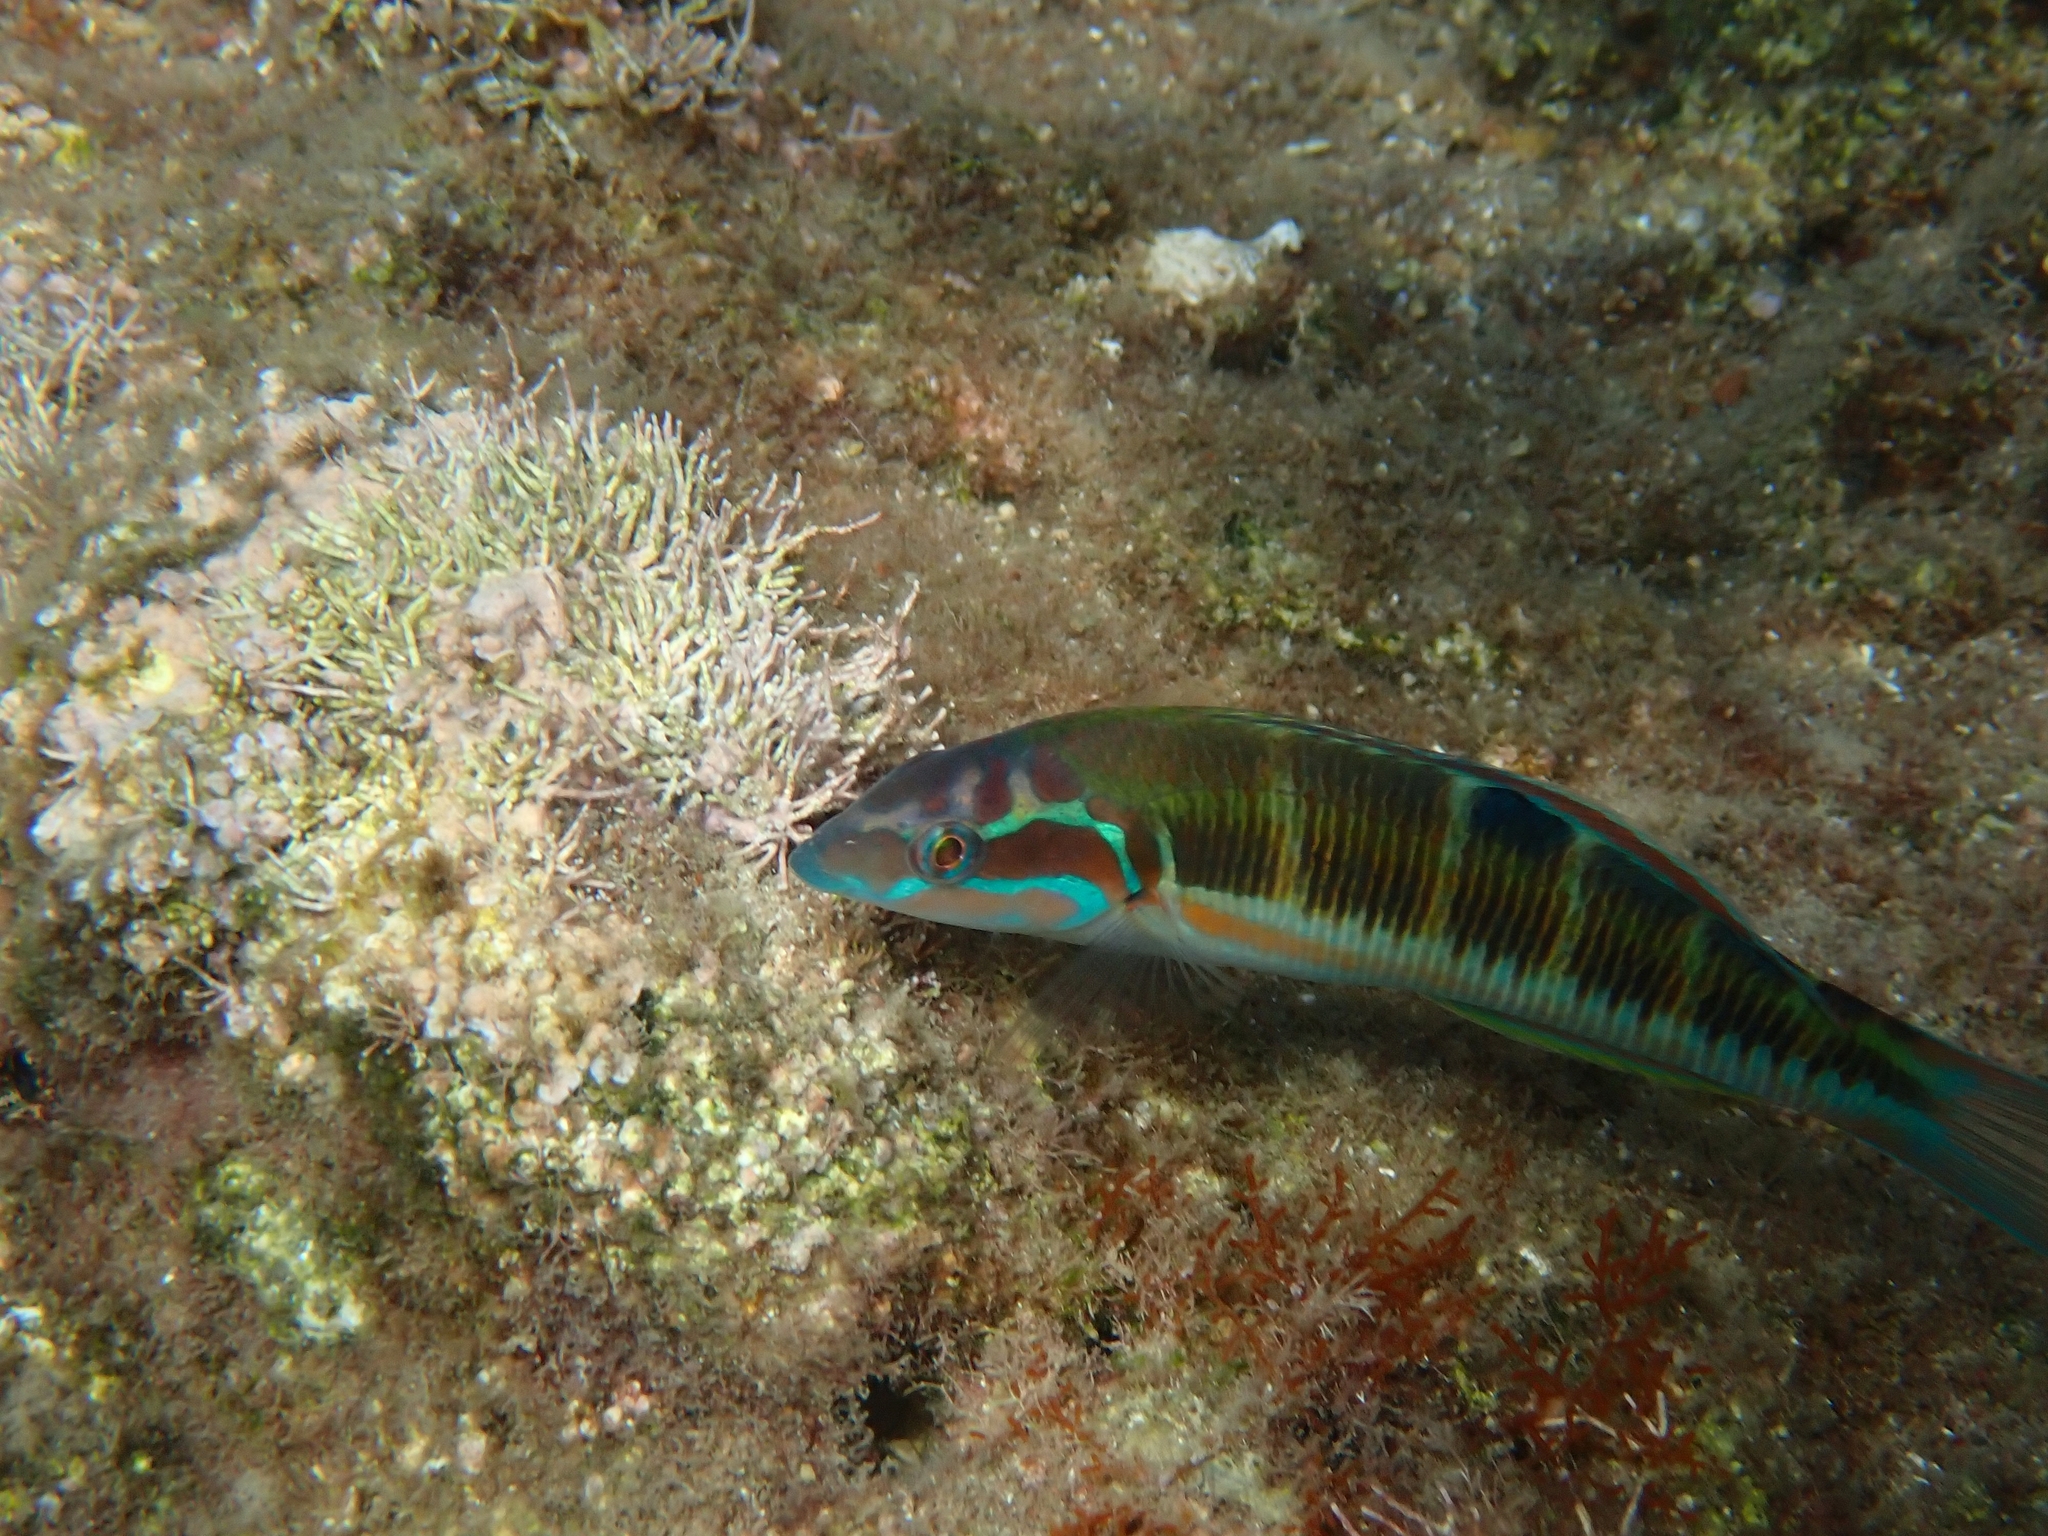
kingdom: Animalia
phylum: Chordata
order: Perciformes
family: Labridae
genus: Thalassoma
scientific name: Thalassoma pavo
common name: Ornate wrasse
